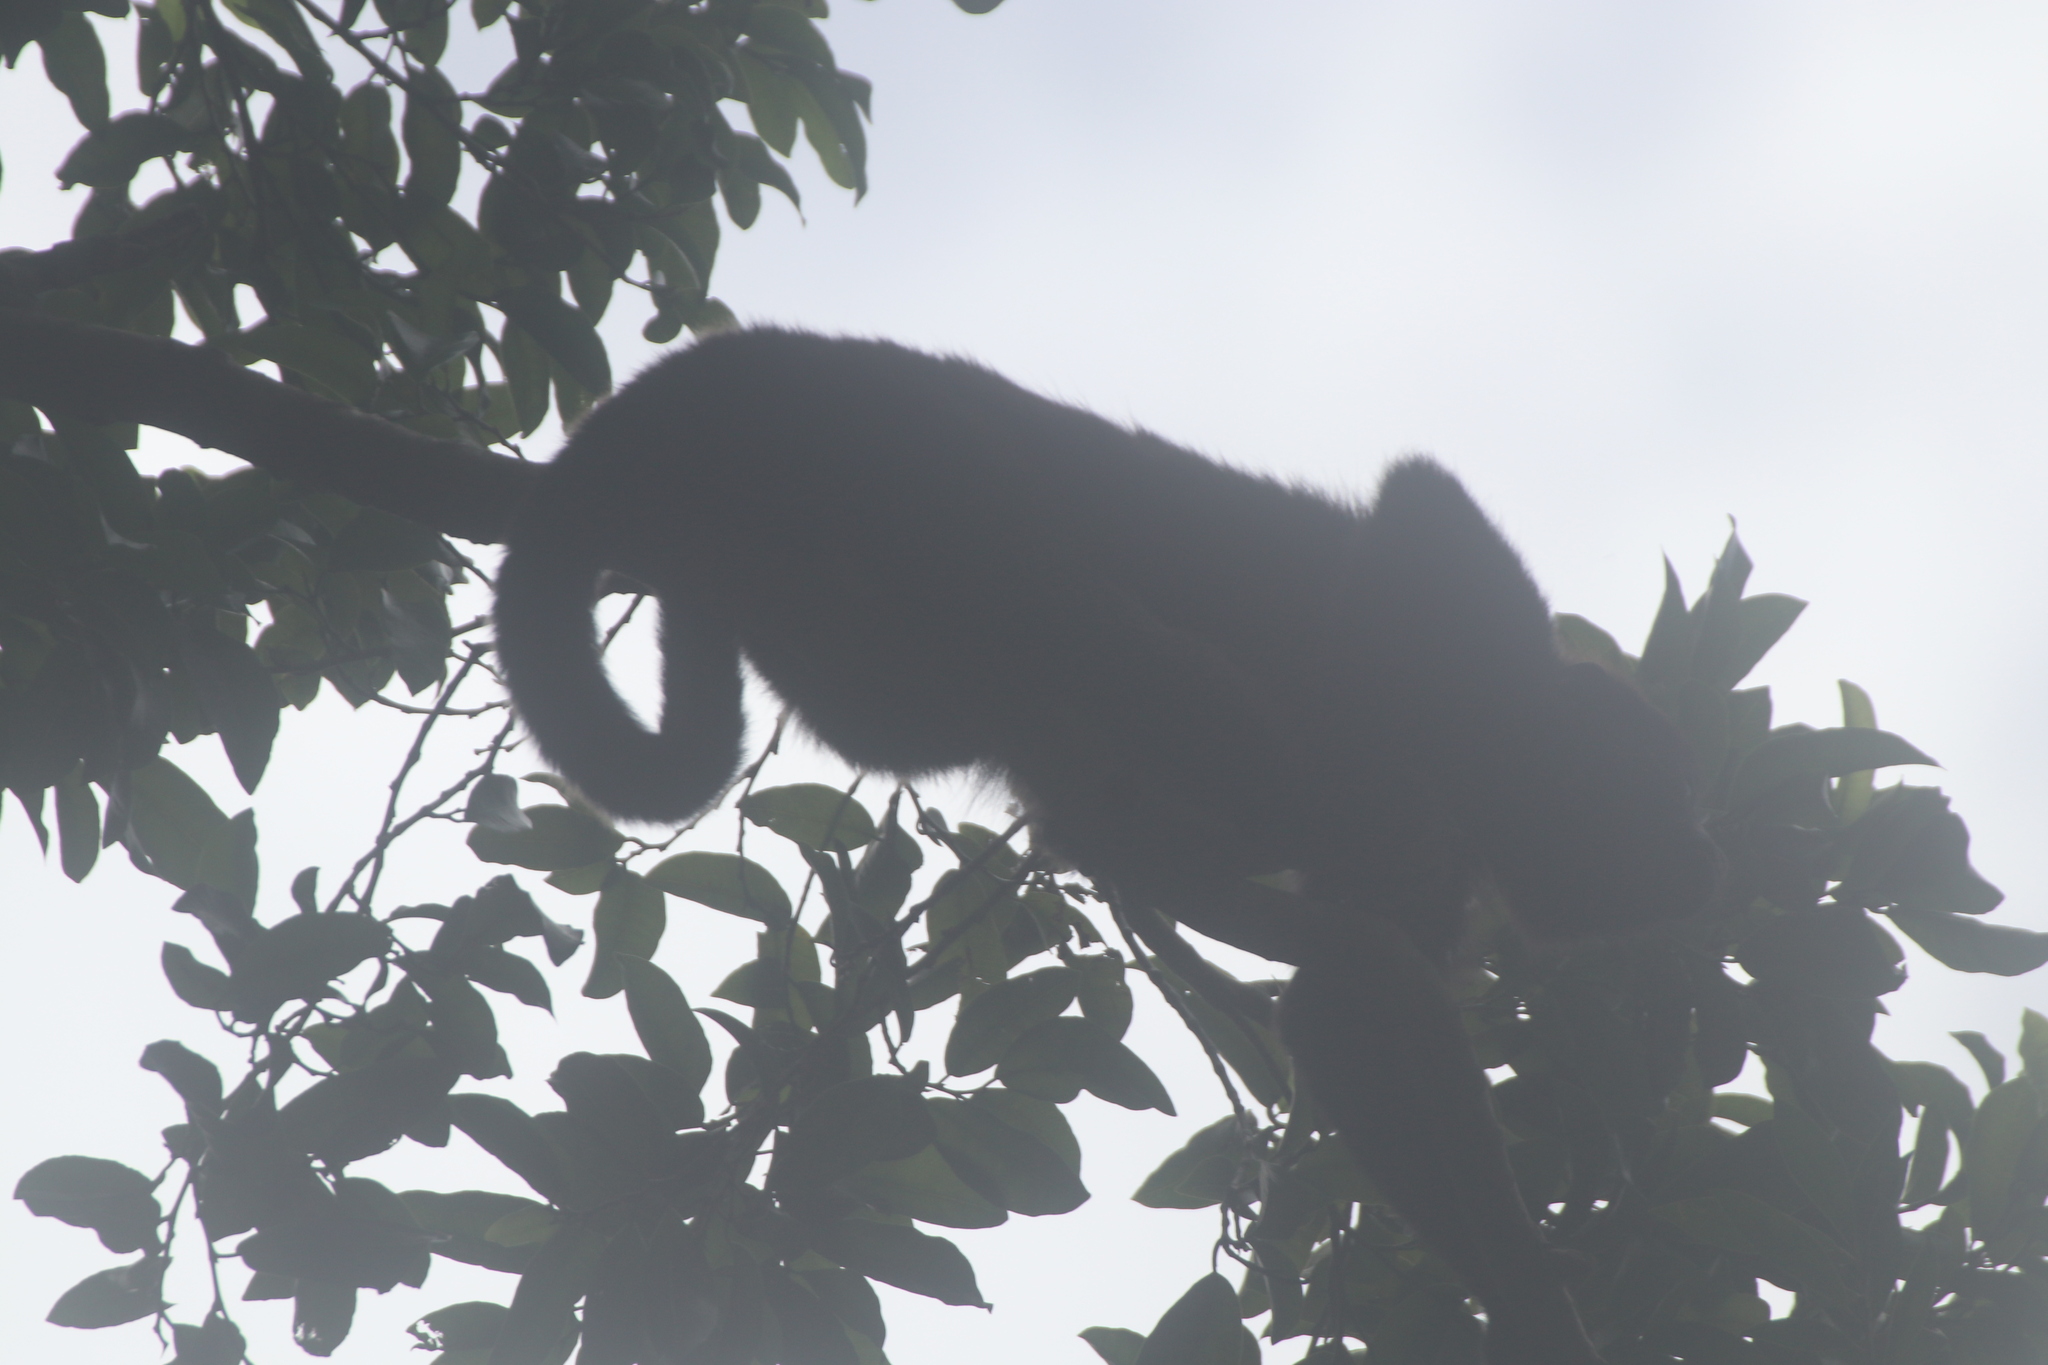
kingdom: Animalia
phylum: Chordata
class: Mammalia
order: Primates
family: Atelidae
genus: Alouatta
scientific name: Alouatta pigra
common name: Guatemalan black howler
